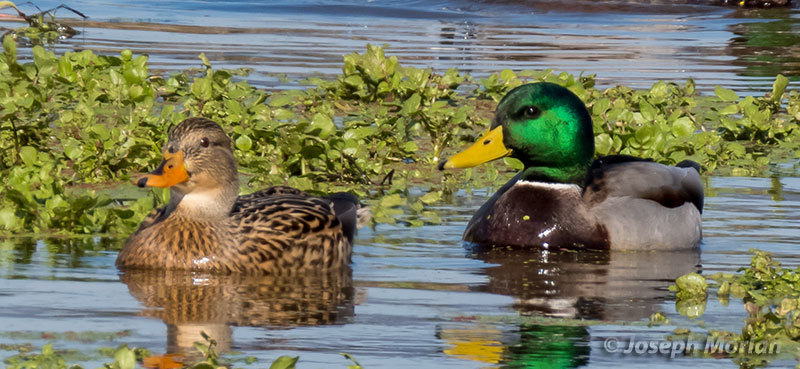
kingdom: Animalia
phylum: Chordata
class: Aves
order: Anseriformes
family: Anatidae
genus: Anas
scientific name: Anas platyrhynchos
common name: Mallard
